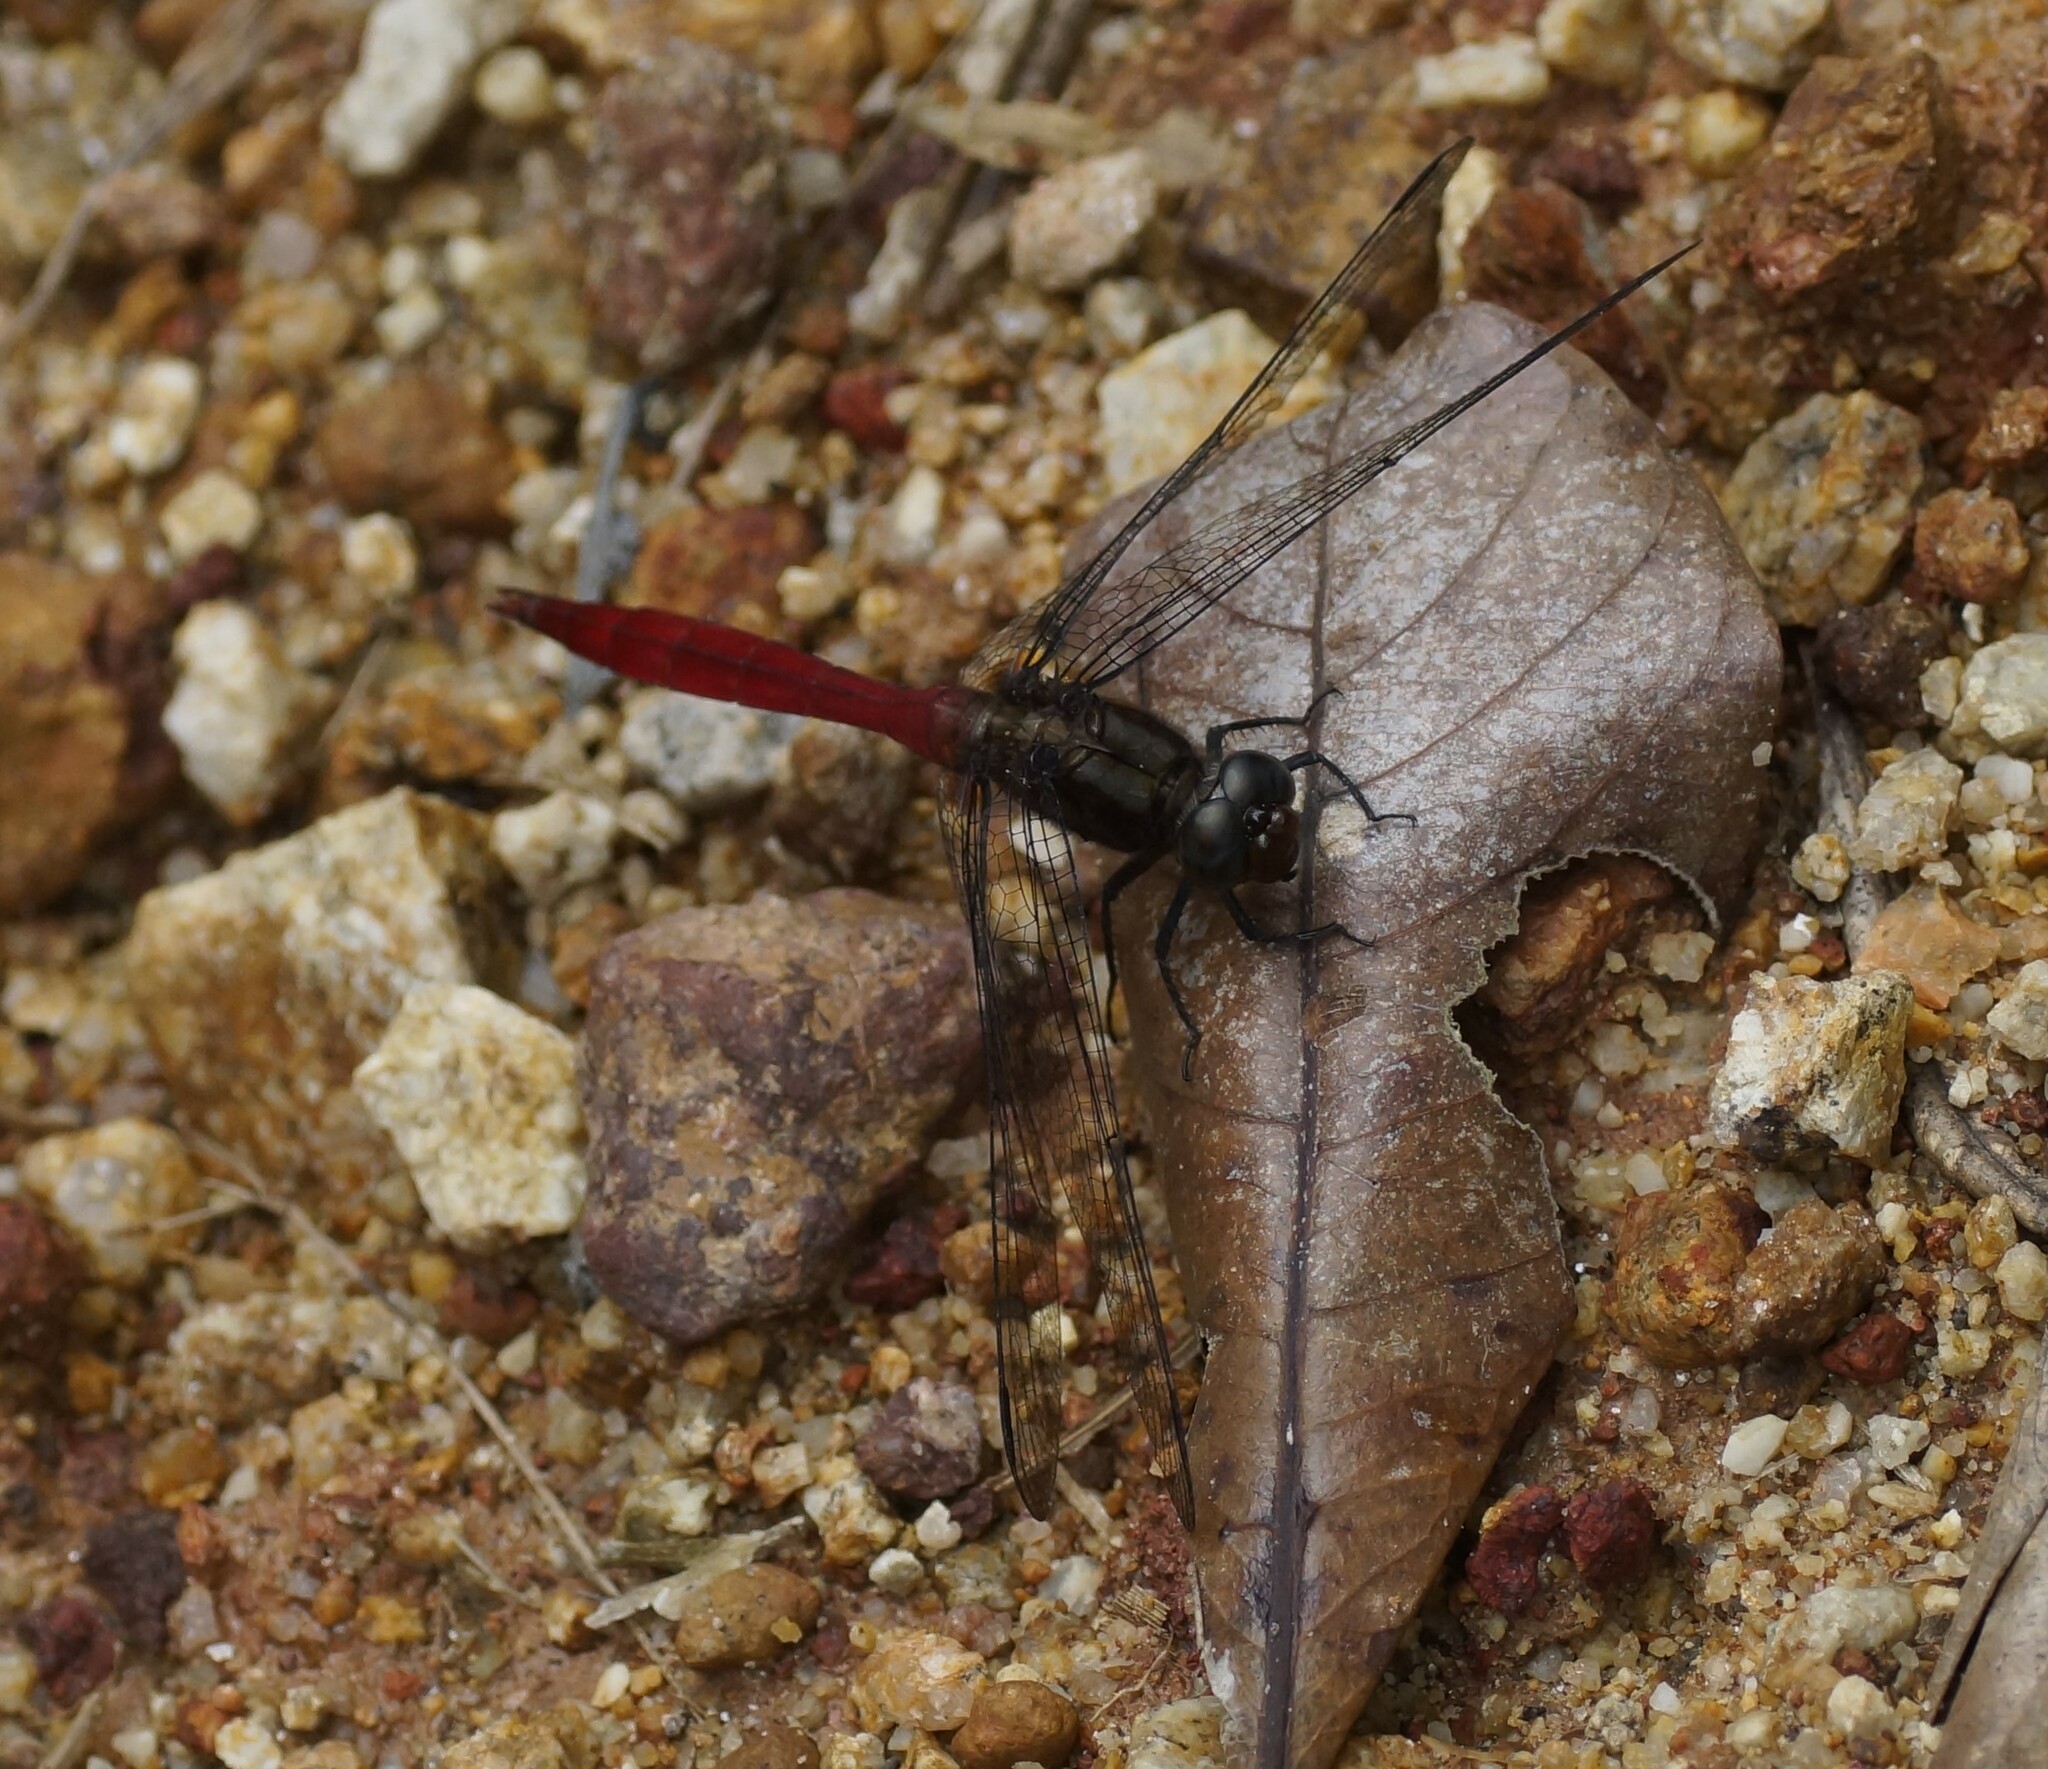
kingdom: Animalia
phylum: Arthropoda
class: Insecta
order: Odonata
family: Libellulidae
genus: Orthetrum
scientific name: Orthetrum villosovittatum
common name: Firery skimmer
